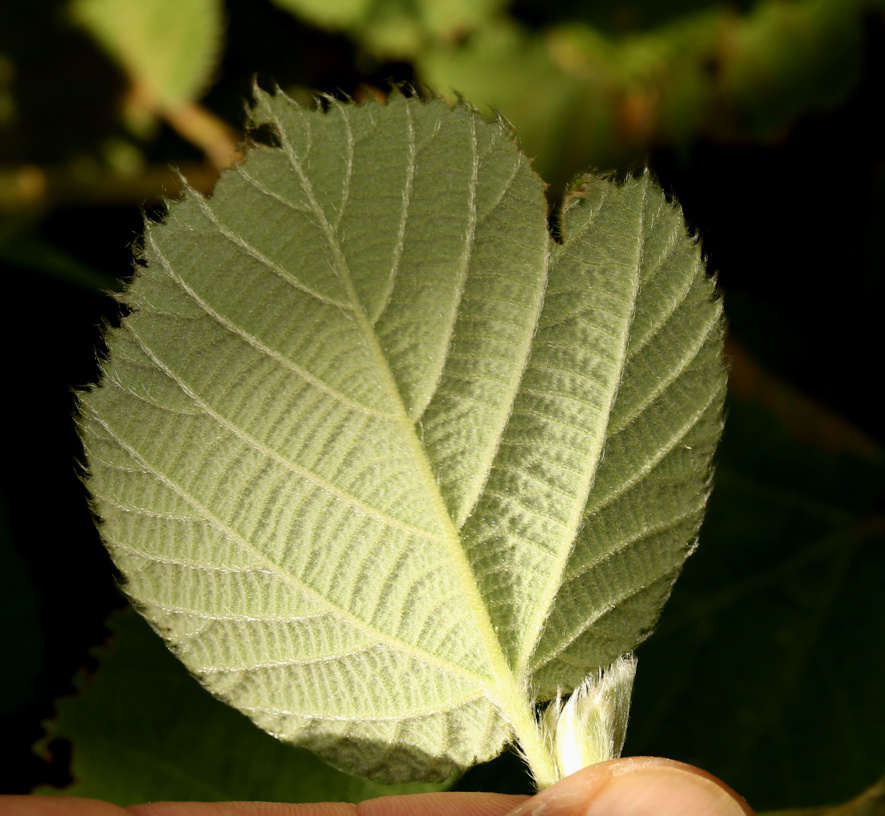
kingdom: Plantae
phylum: Tracheophyta
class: Magnoliopsida
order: Malvales
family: Malvaceae
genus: Grewia
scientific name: Grewia villosa
